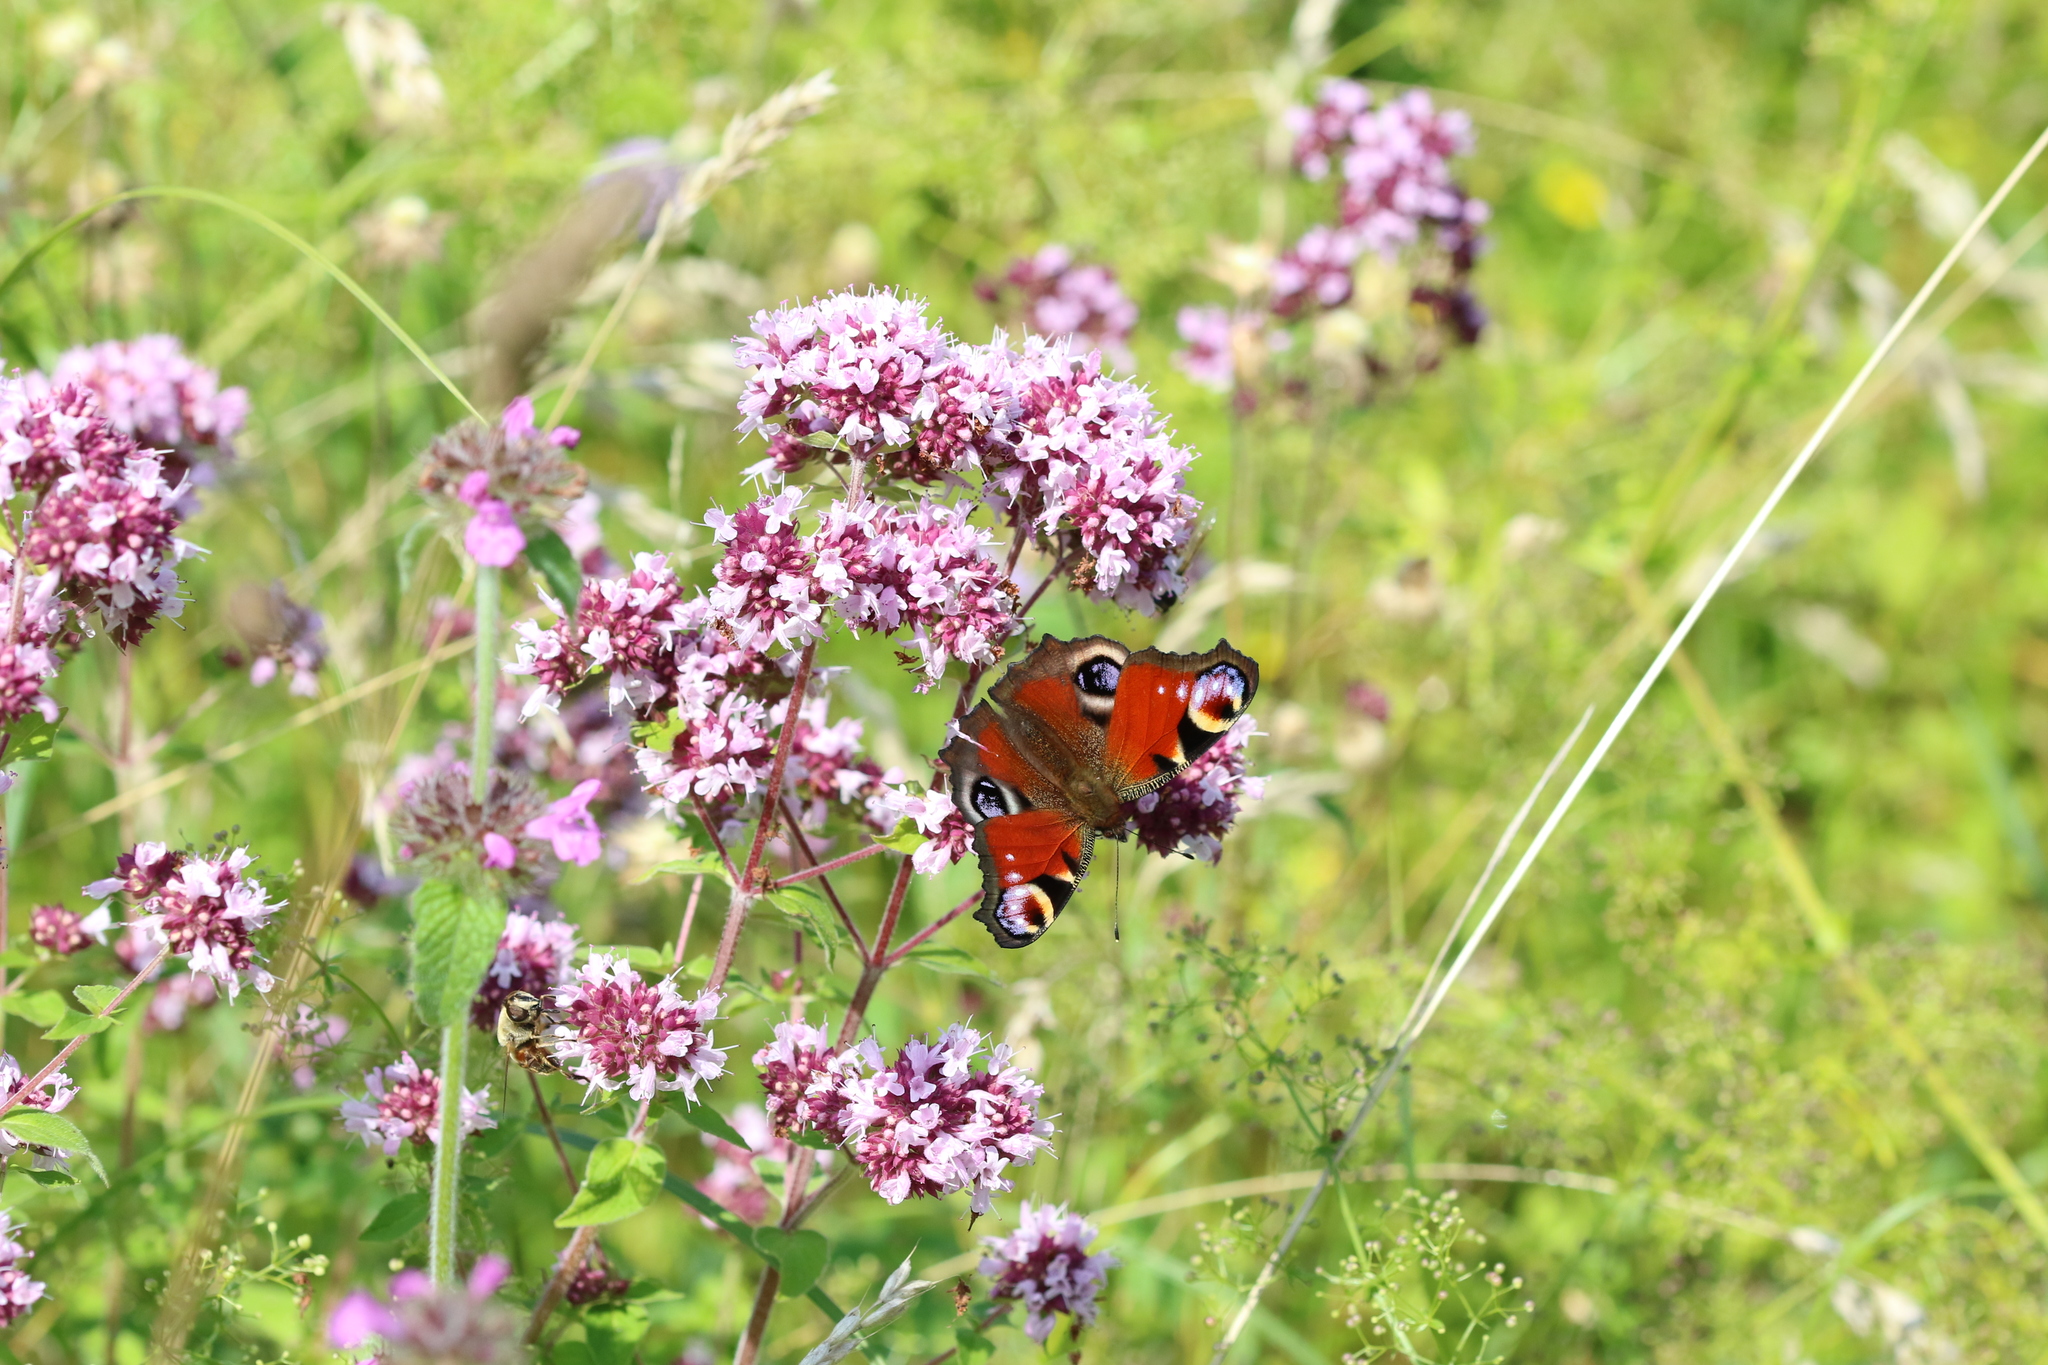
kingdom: Animalia
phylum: Arthropoda
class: Insecta
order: Lepidoptera
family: Nymphalidae
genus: Aglais
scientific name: Aglais io
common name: Peacock
